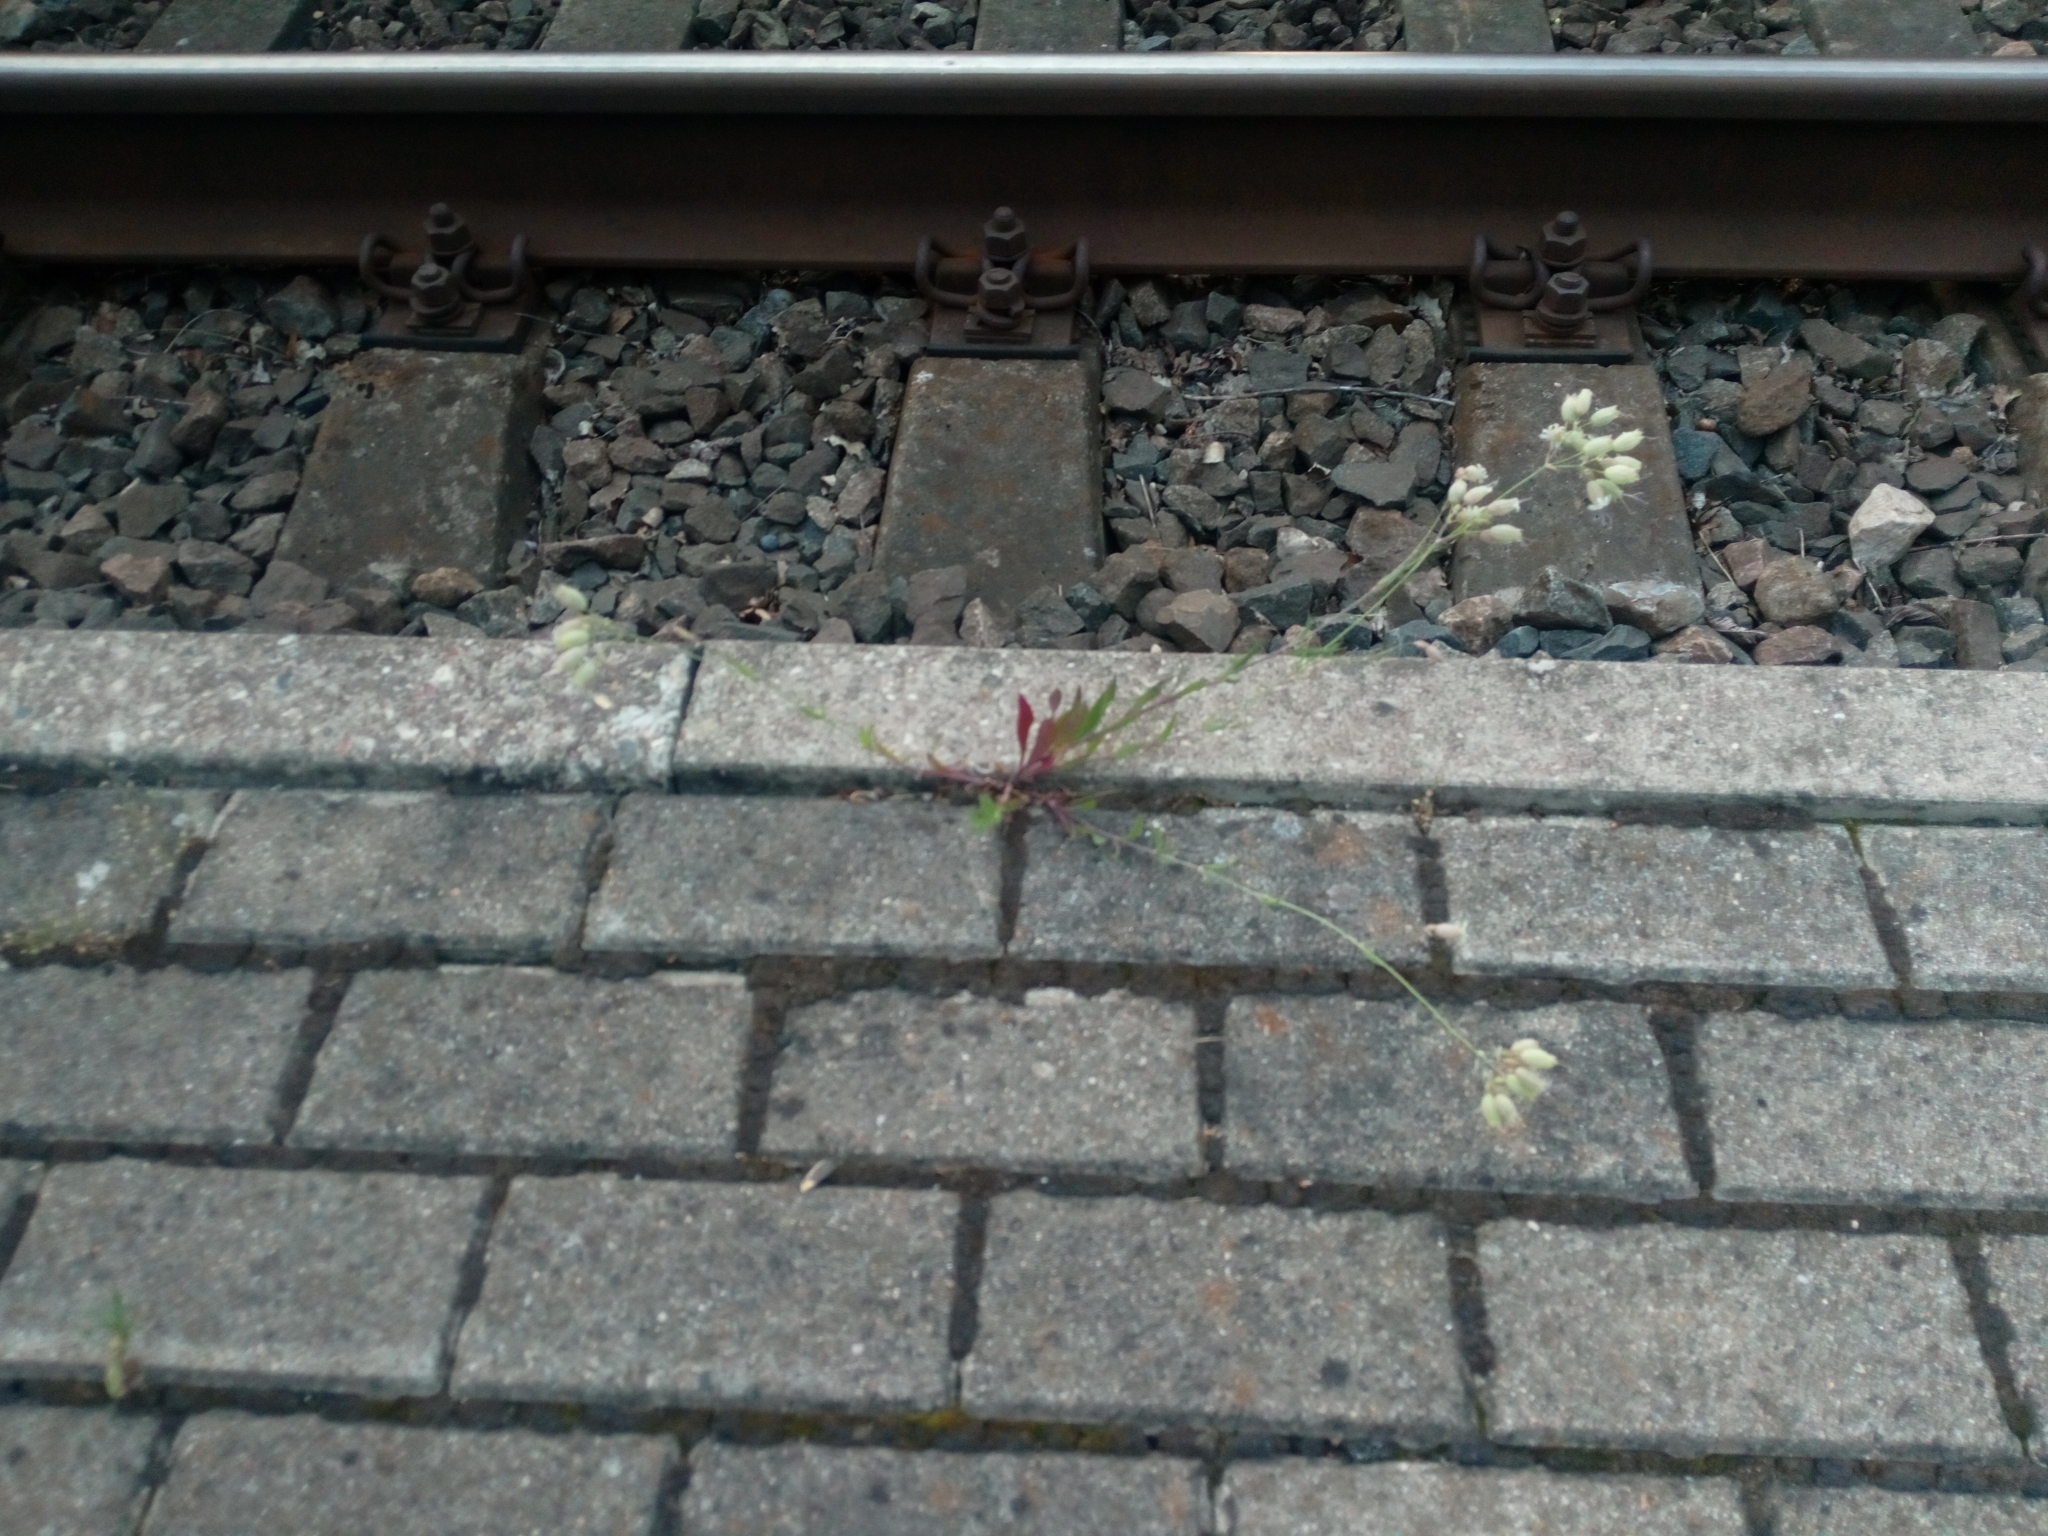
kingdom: Plantae
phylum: Tracheophyta
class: Magnoliopsida
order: Caryophyllales
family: Caryophyllaceae
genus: Silene
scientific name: Silene vulgaris
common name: Bladder campion
